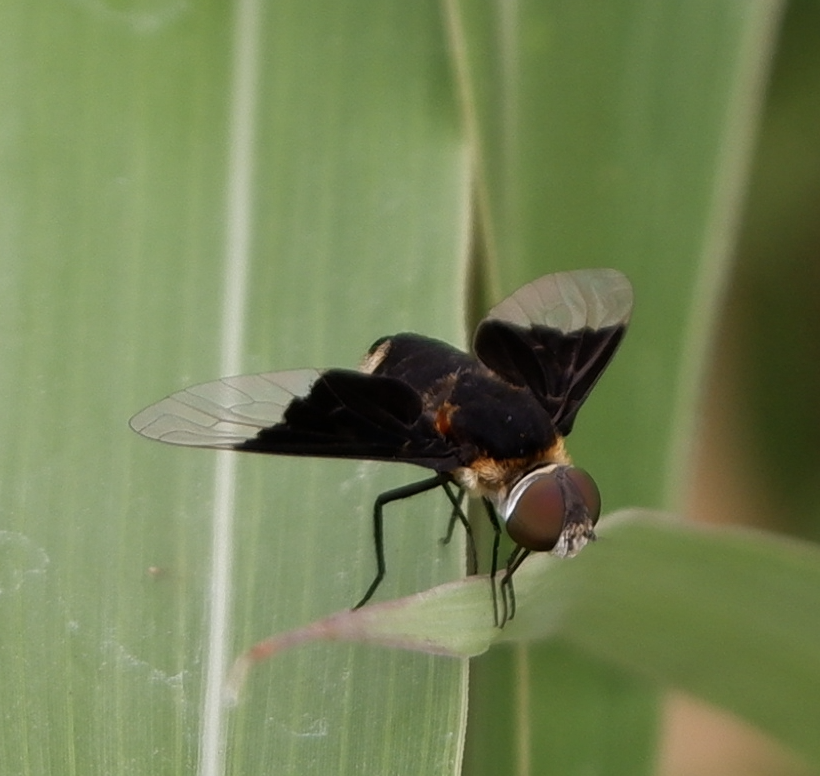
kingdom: Animalia
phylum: Arthropoda
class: Insecta
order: Diptera
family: Bombyliidae
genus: Ins
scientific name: Ins celeris
